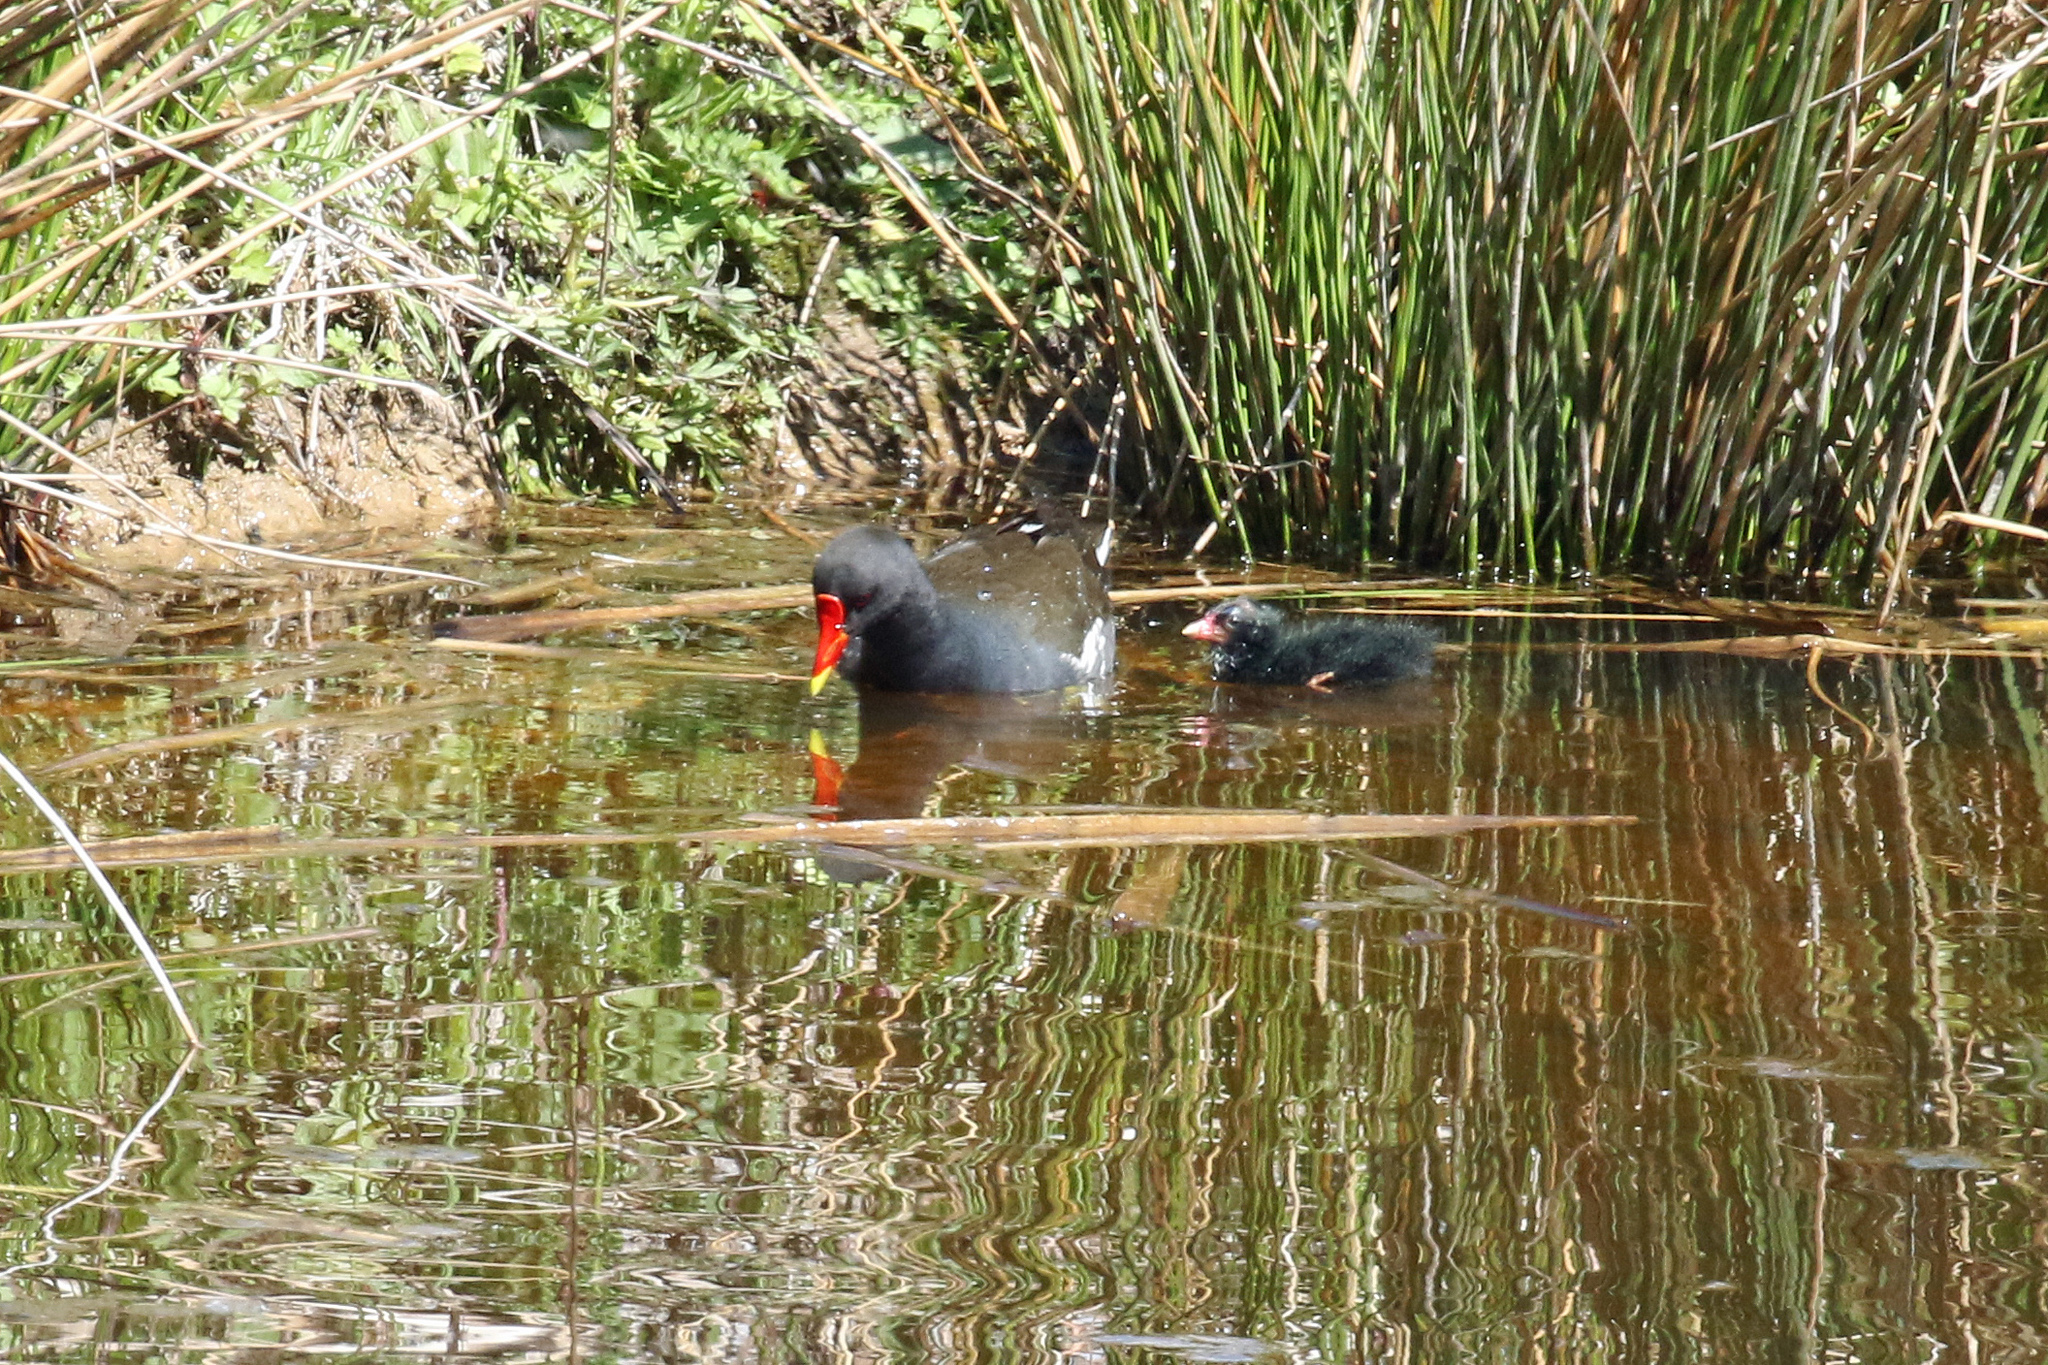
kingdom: Animalia
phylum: Chordata
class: Aves
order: Gruiformes
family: Rallidae
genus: Gallinula
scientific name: Gallinula chloropus
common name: Common moorhen
